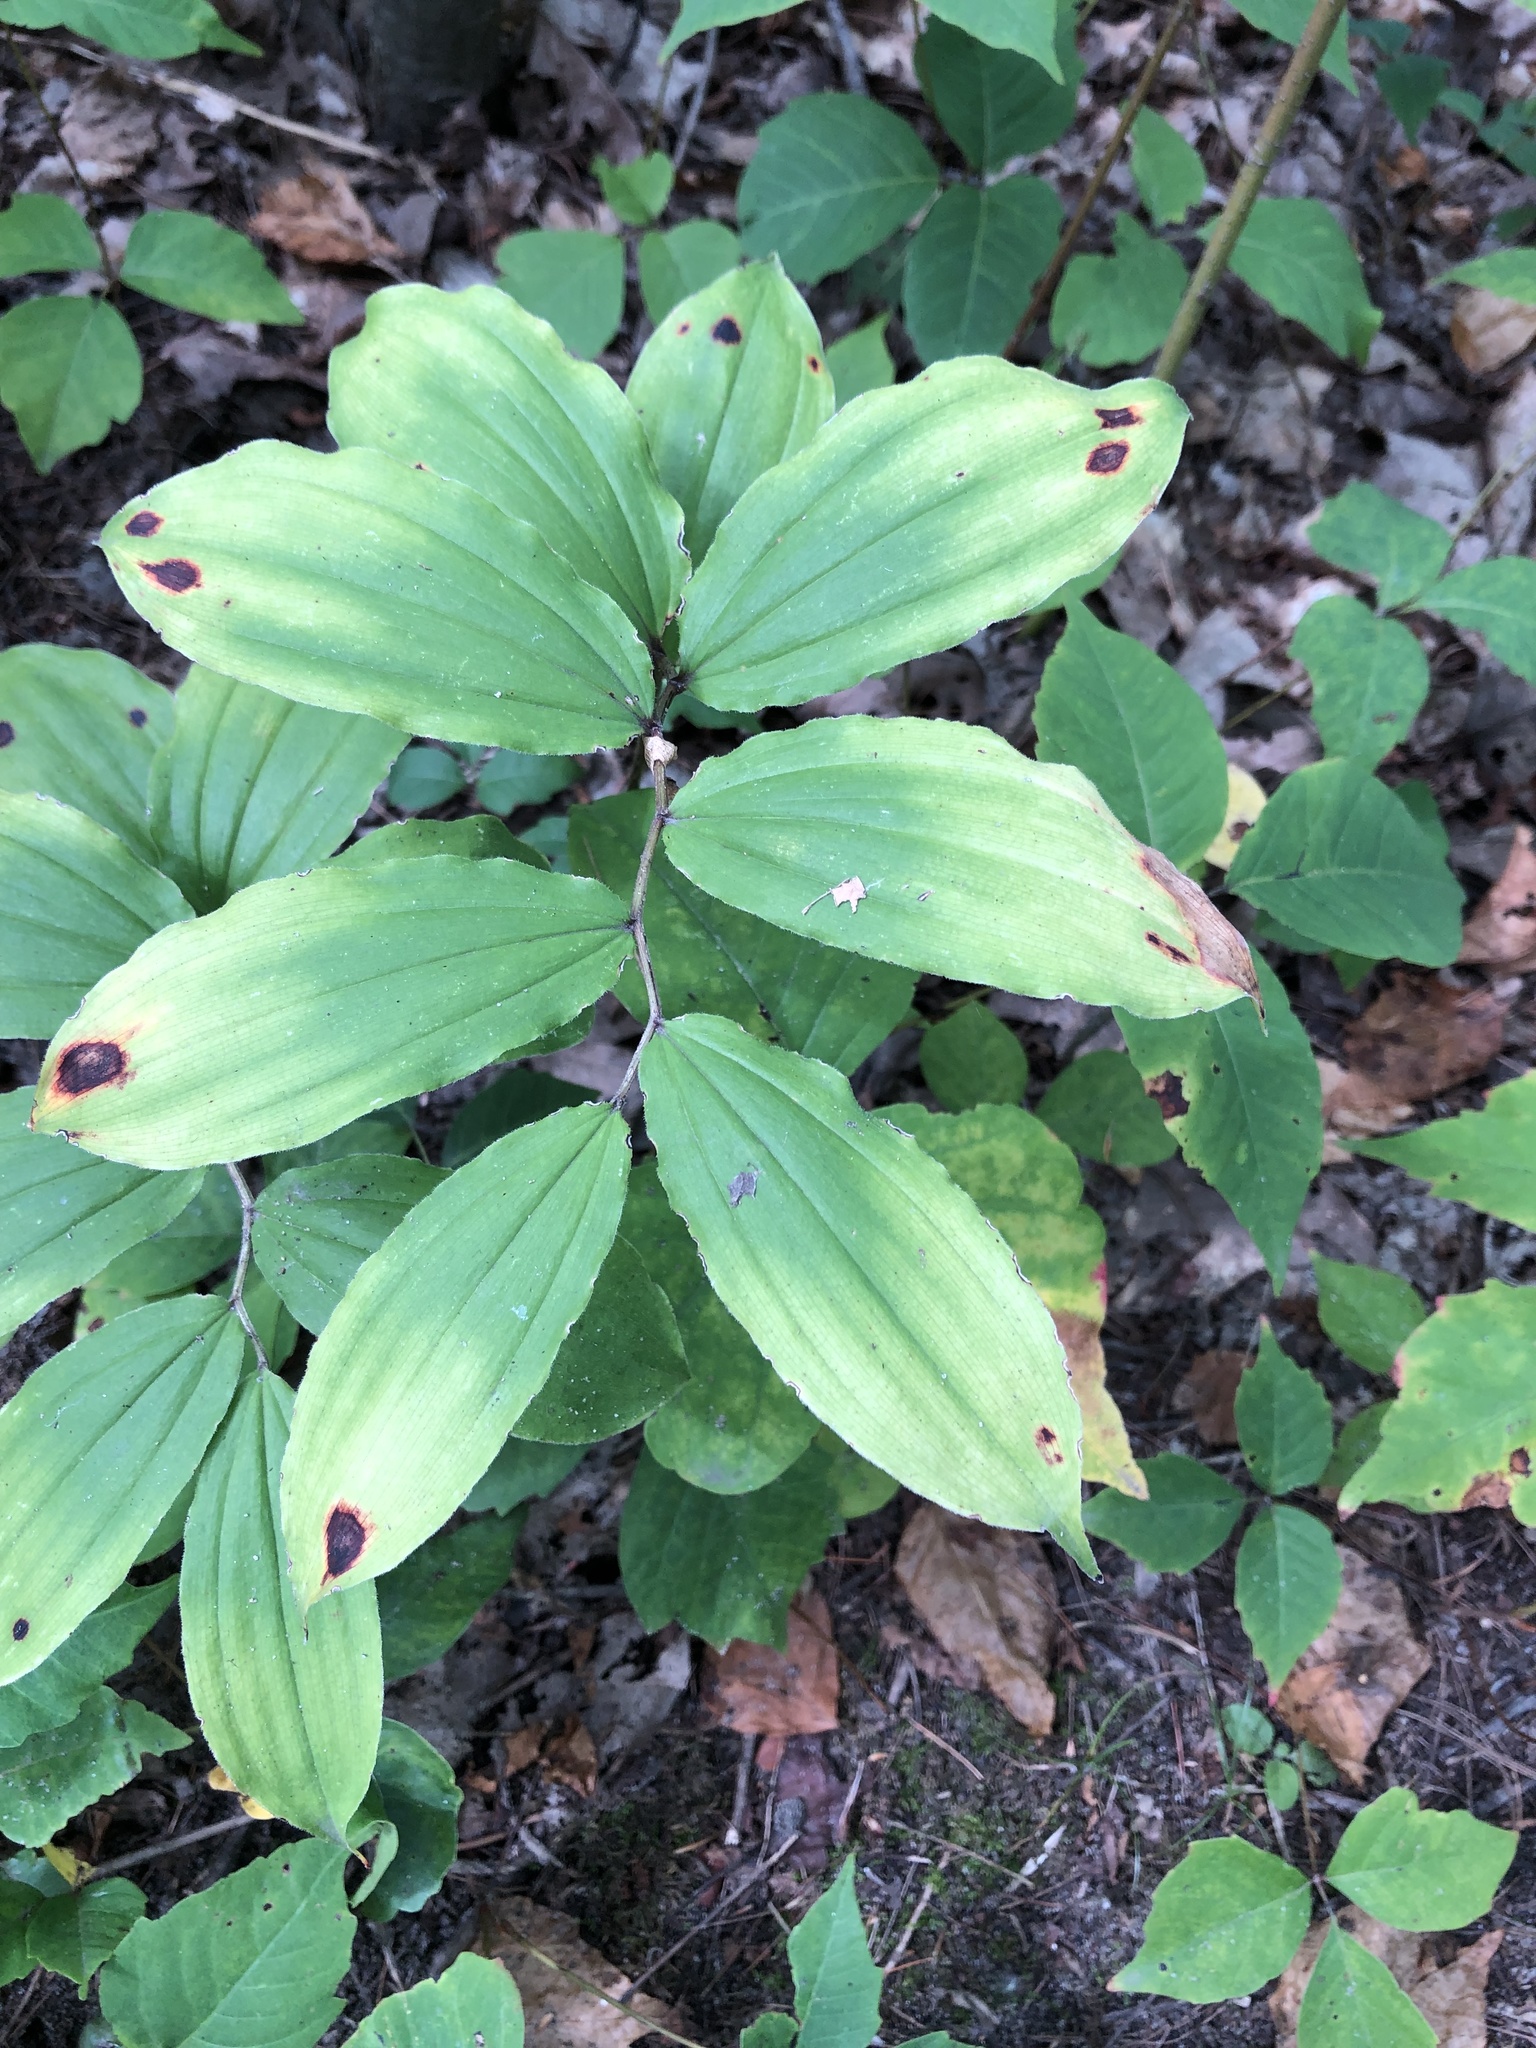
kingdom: Plantae
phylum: Tracheophyta
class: Liliopsida
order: Asparagales
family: Asparagaceae
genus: Maianthemum
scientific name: Maianthemum racemosum
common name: False spikenard
